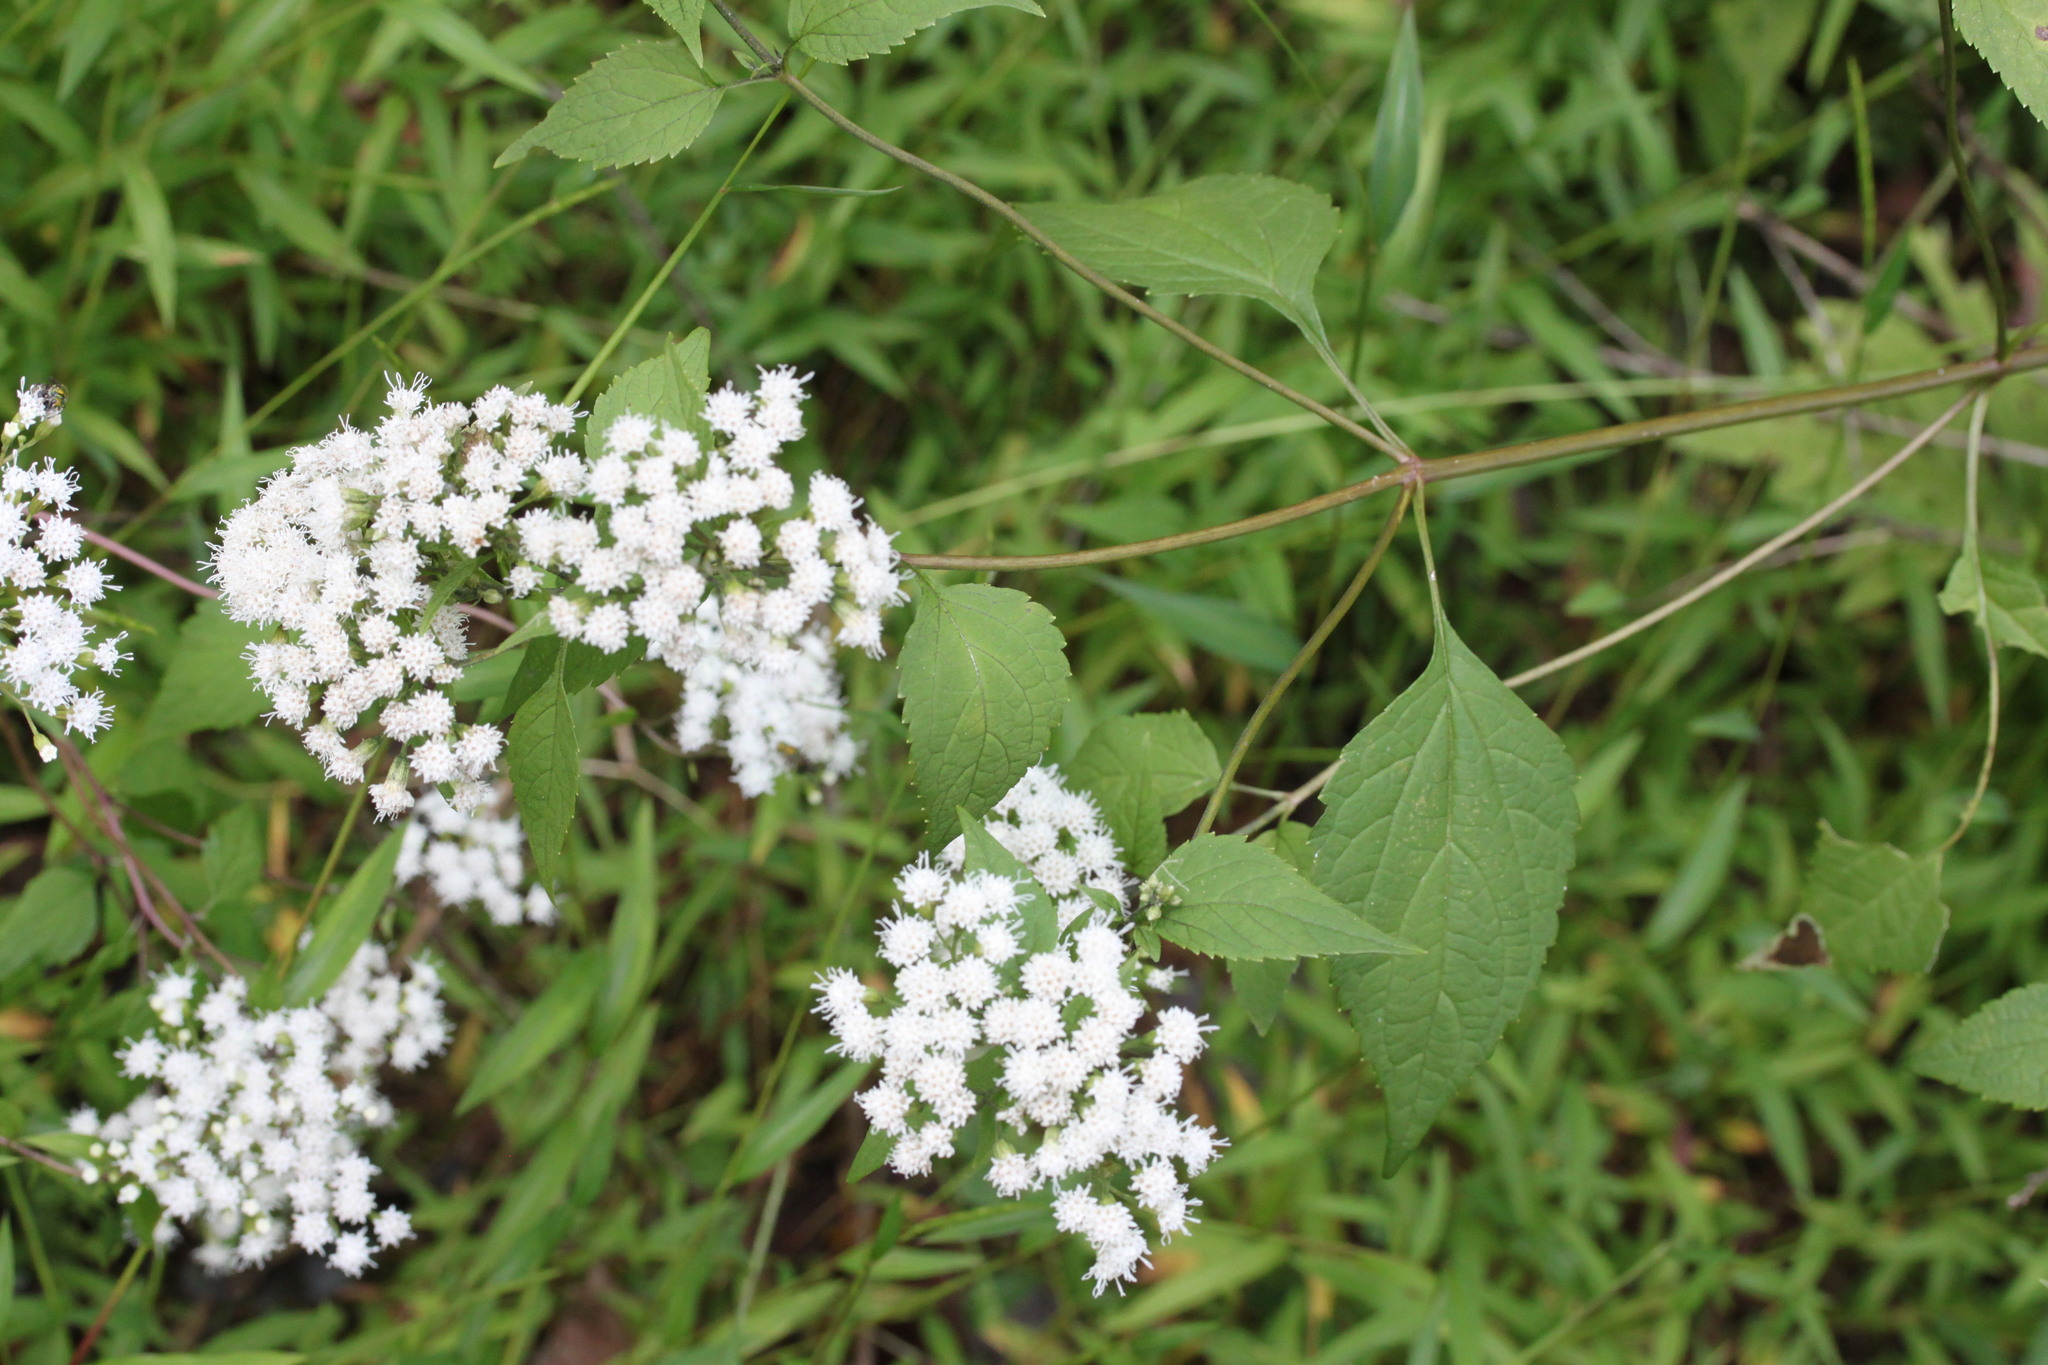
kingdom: Plantae
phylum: Tracheophyta
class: Magnoliopsida
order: Asterales
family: Asteraceae
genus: Ageratina
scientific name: Ageratina altissima
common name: White snakeroot
